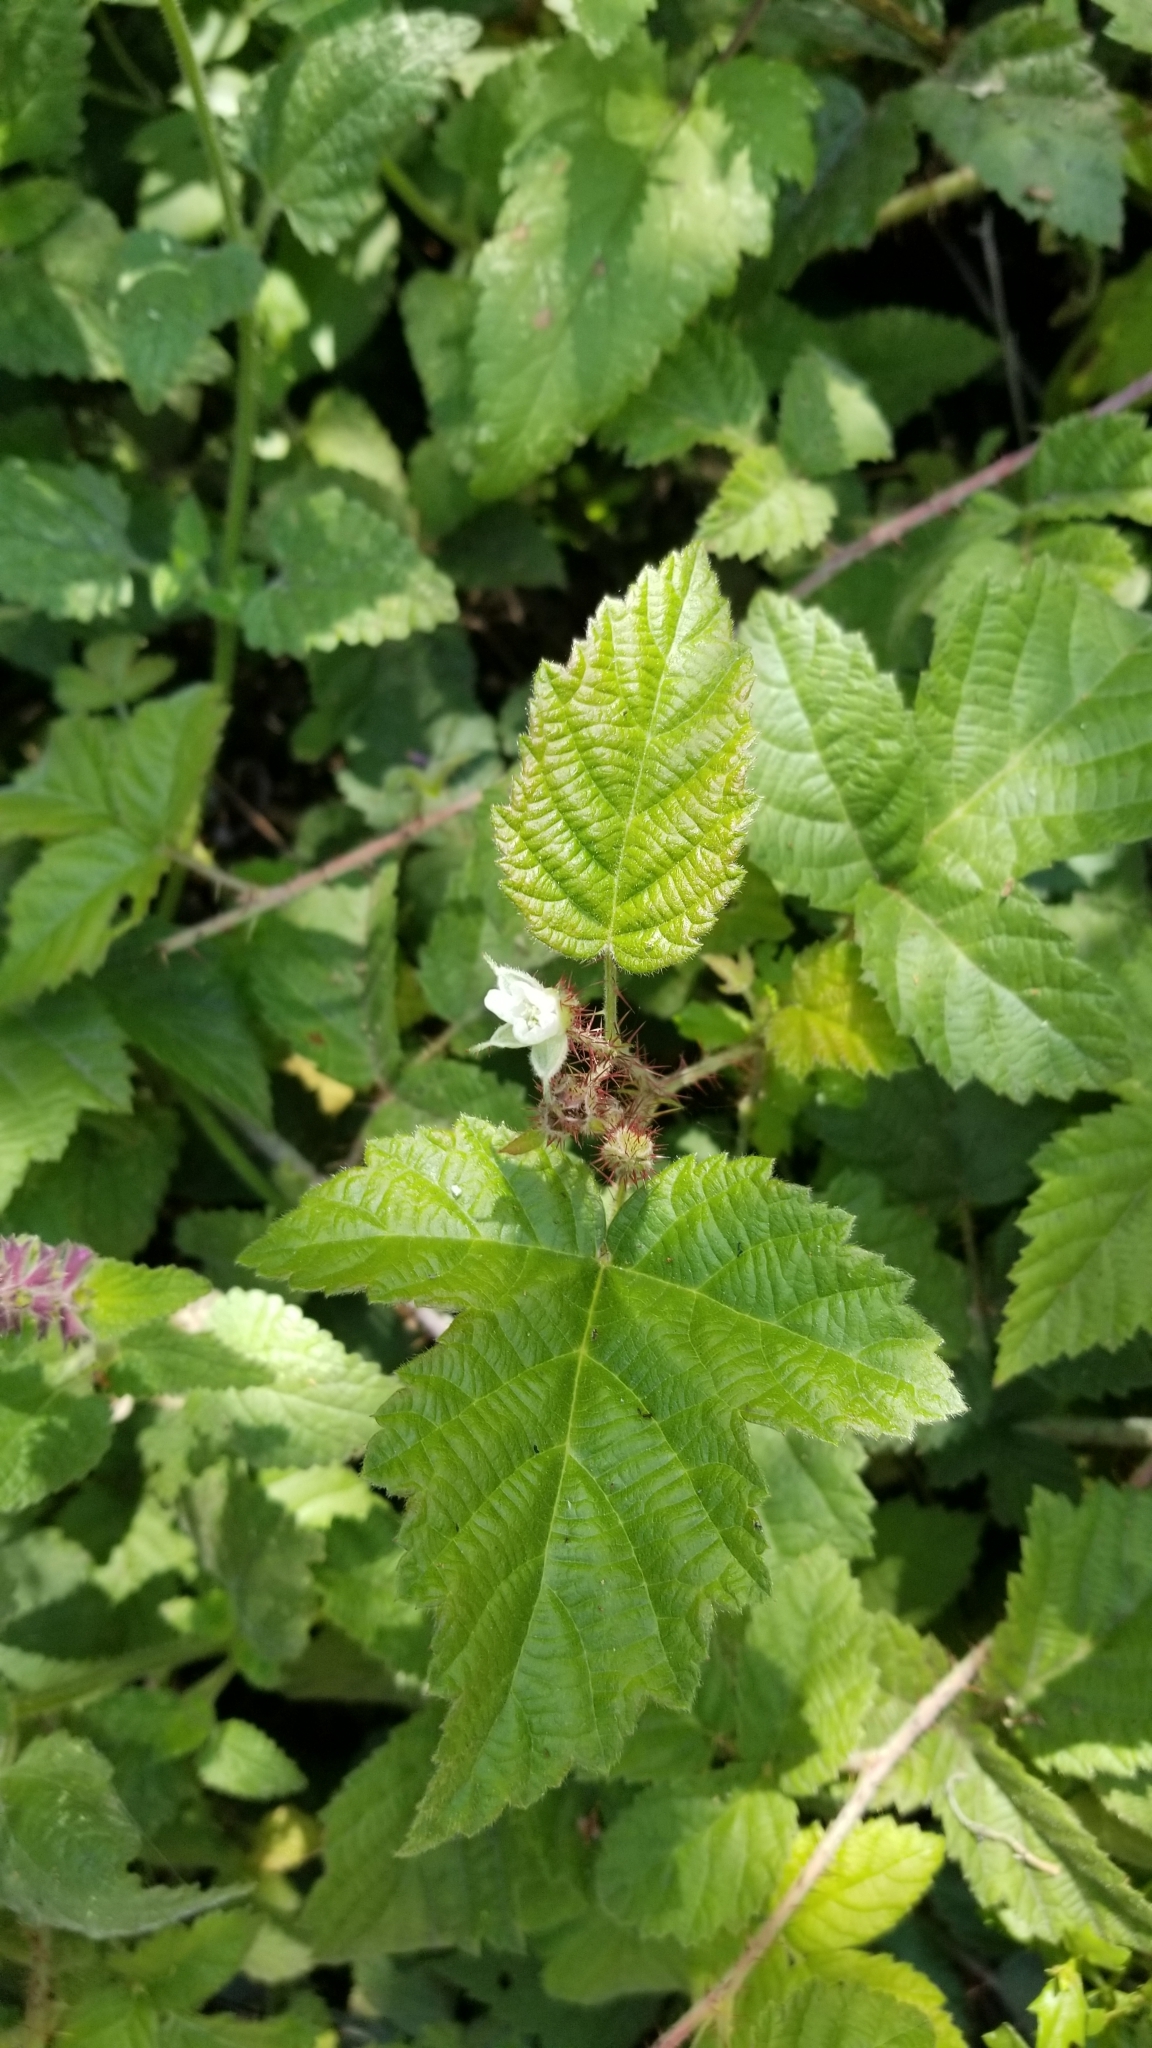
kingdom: Plantae
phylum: Tracheophyta
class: Magnoliopsida
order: Rosales
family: Rosaceae
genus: Rubus
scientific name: Rubus ursinus
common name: Pacific blackberry
